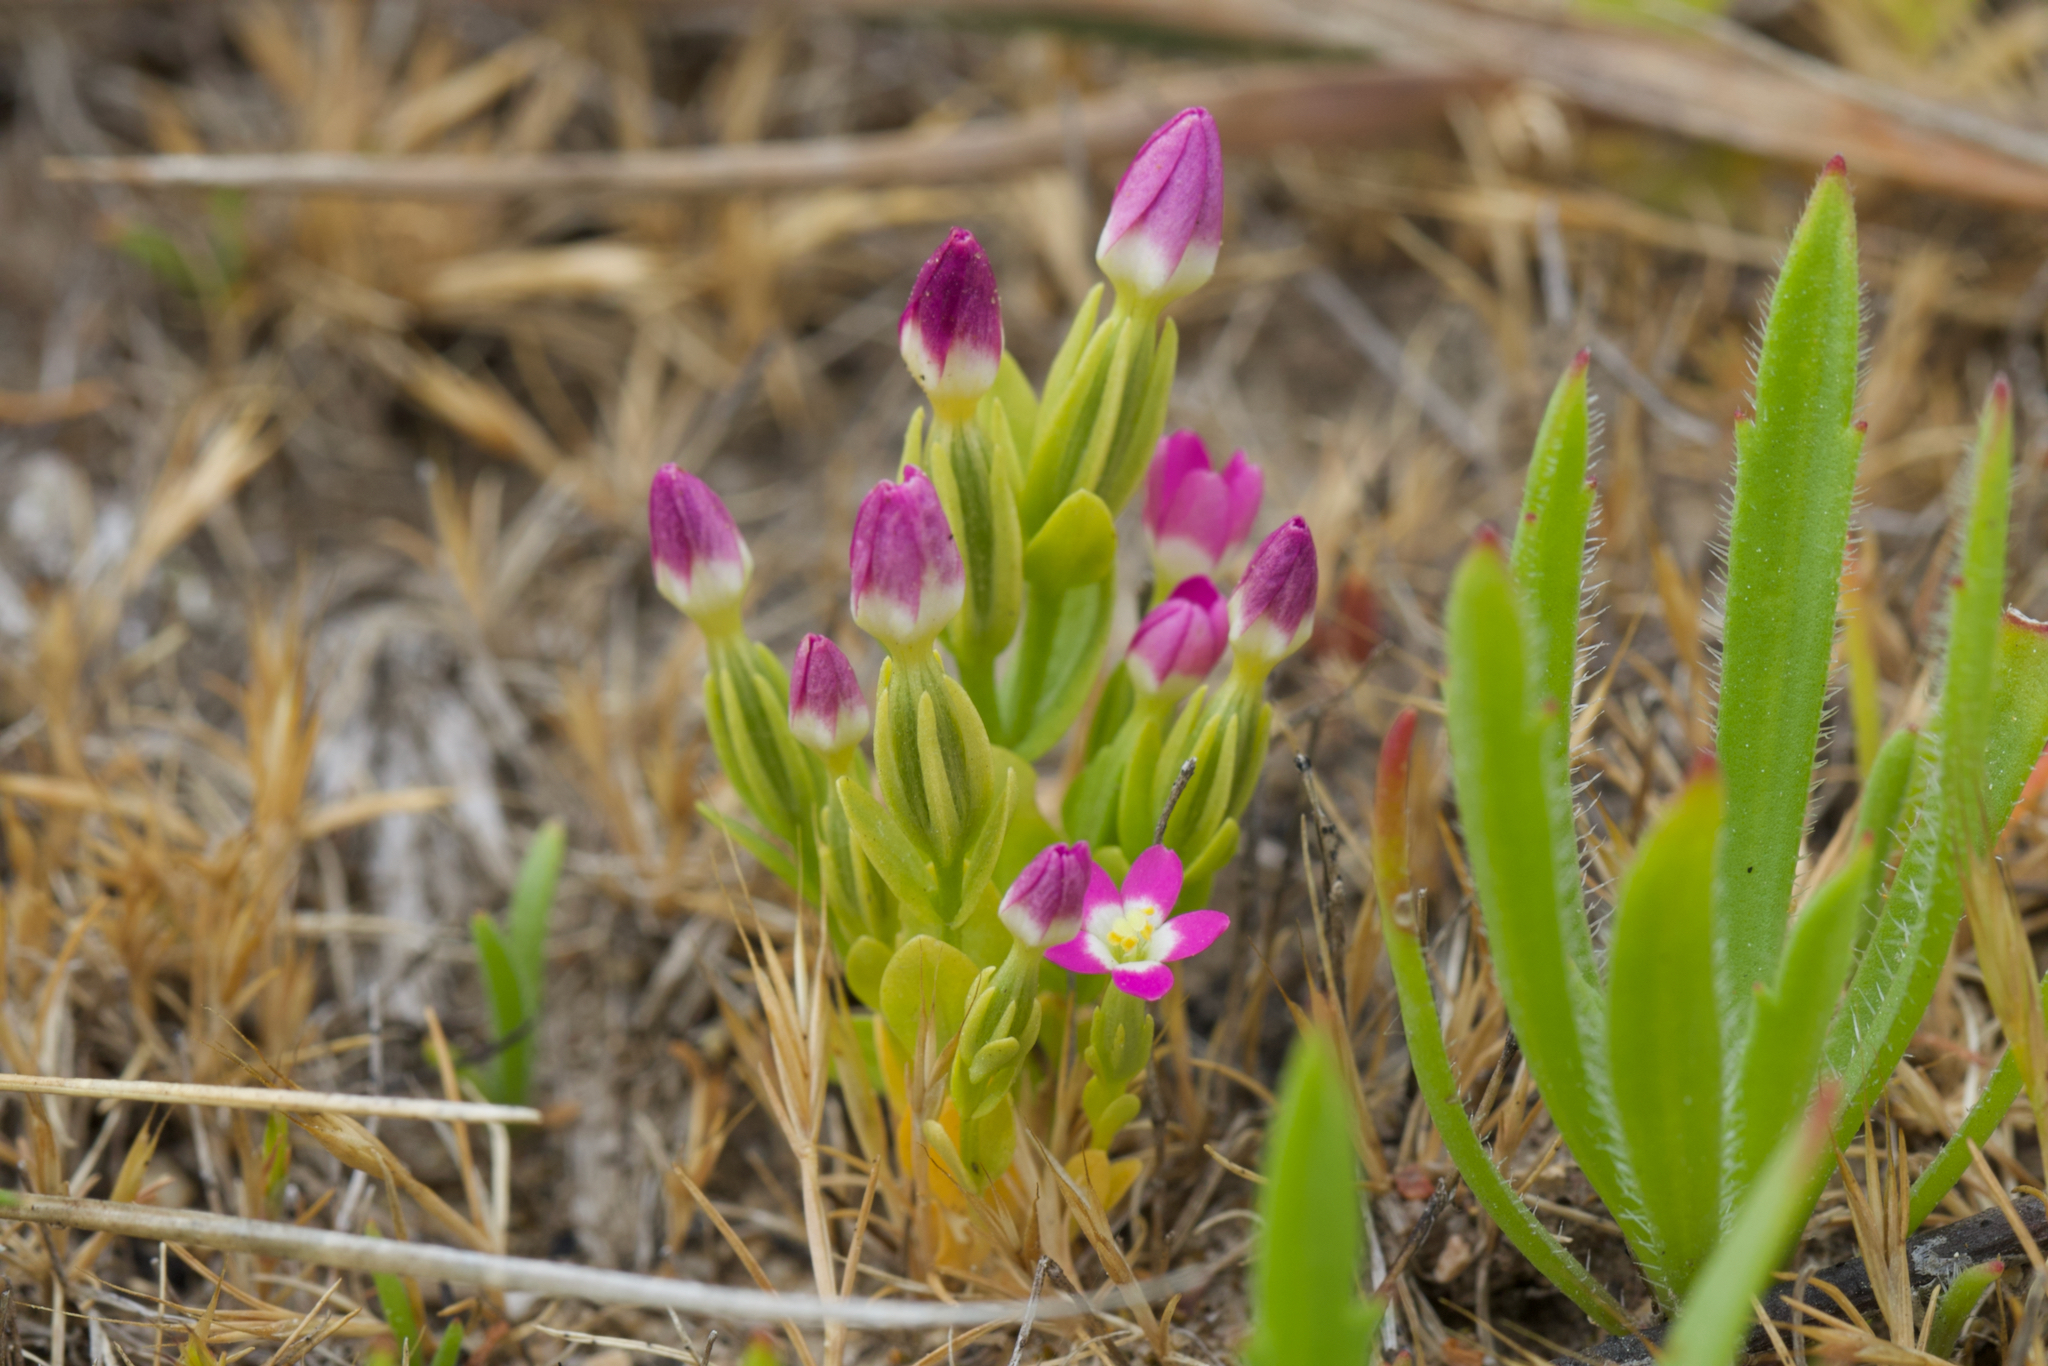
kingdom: Plantae
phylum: Tracheophyta
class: Magnoliopsida
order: Gentianales
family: Gentianaceae
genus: Zeltnera
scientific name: Zeltnera davyi
